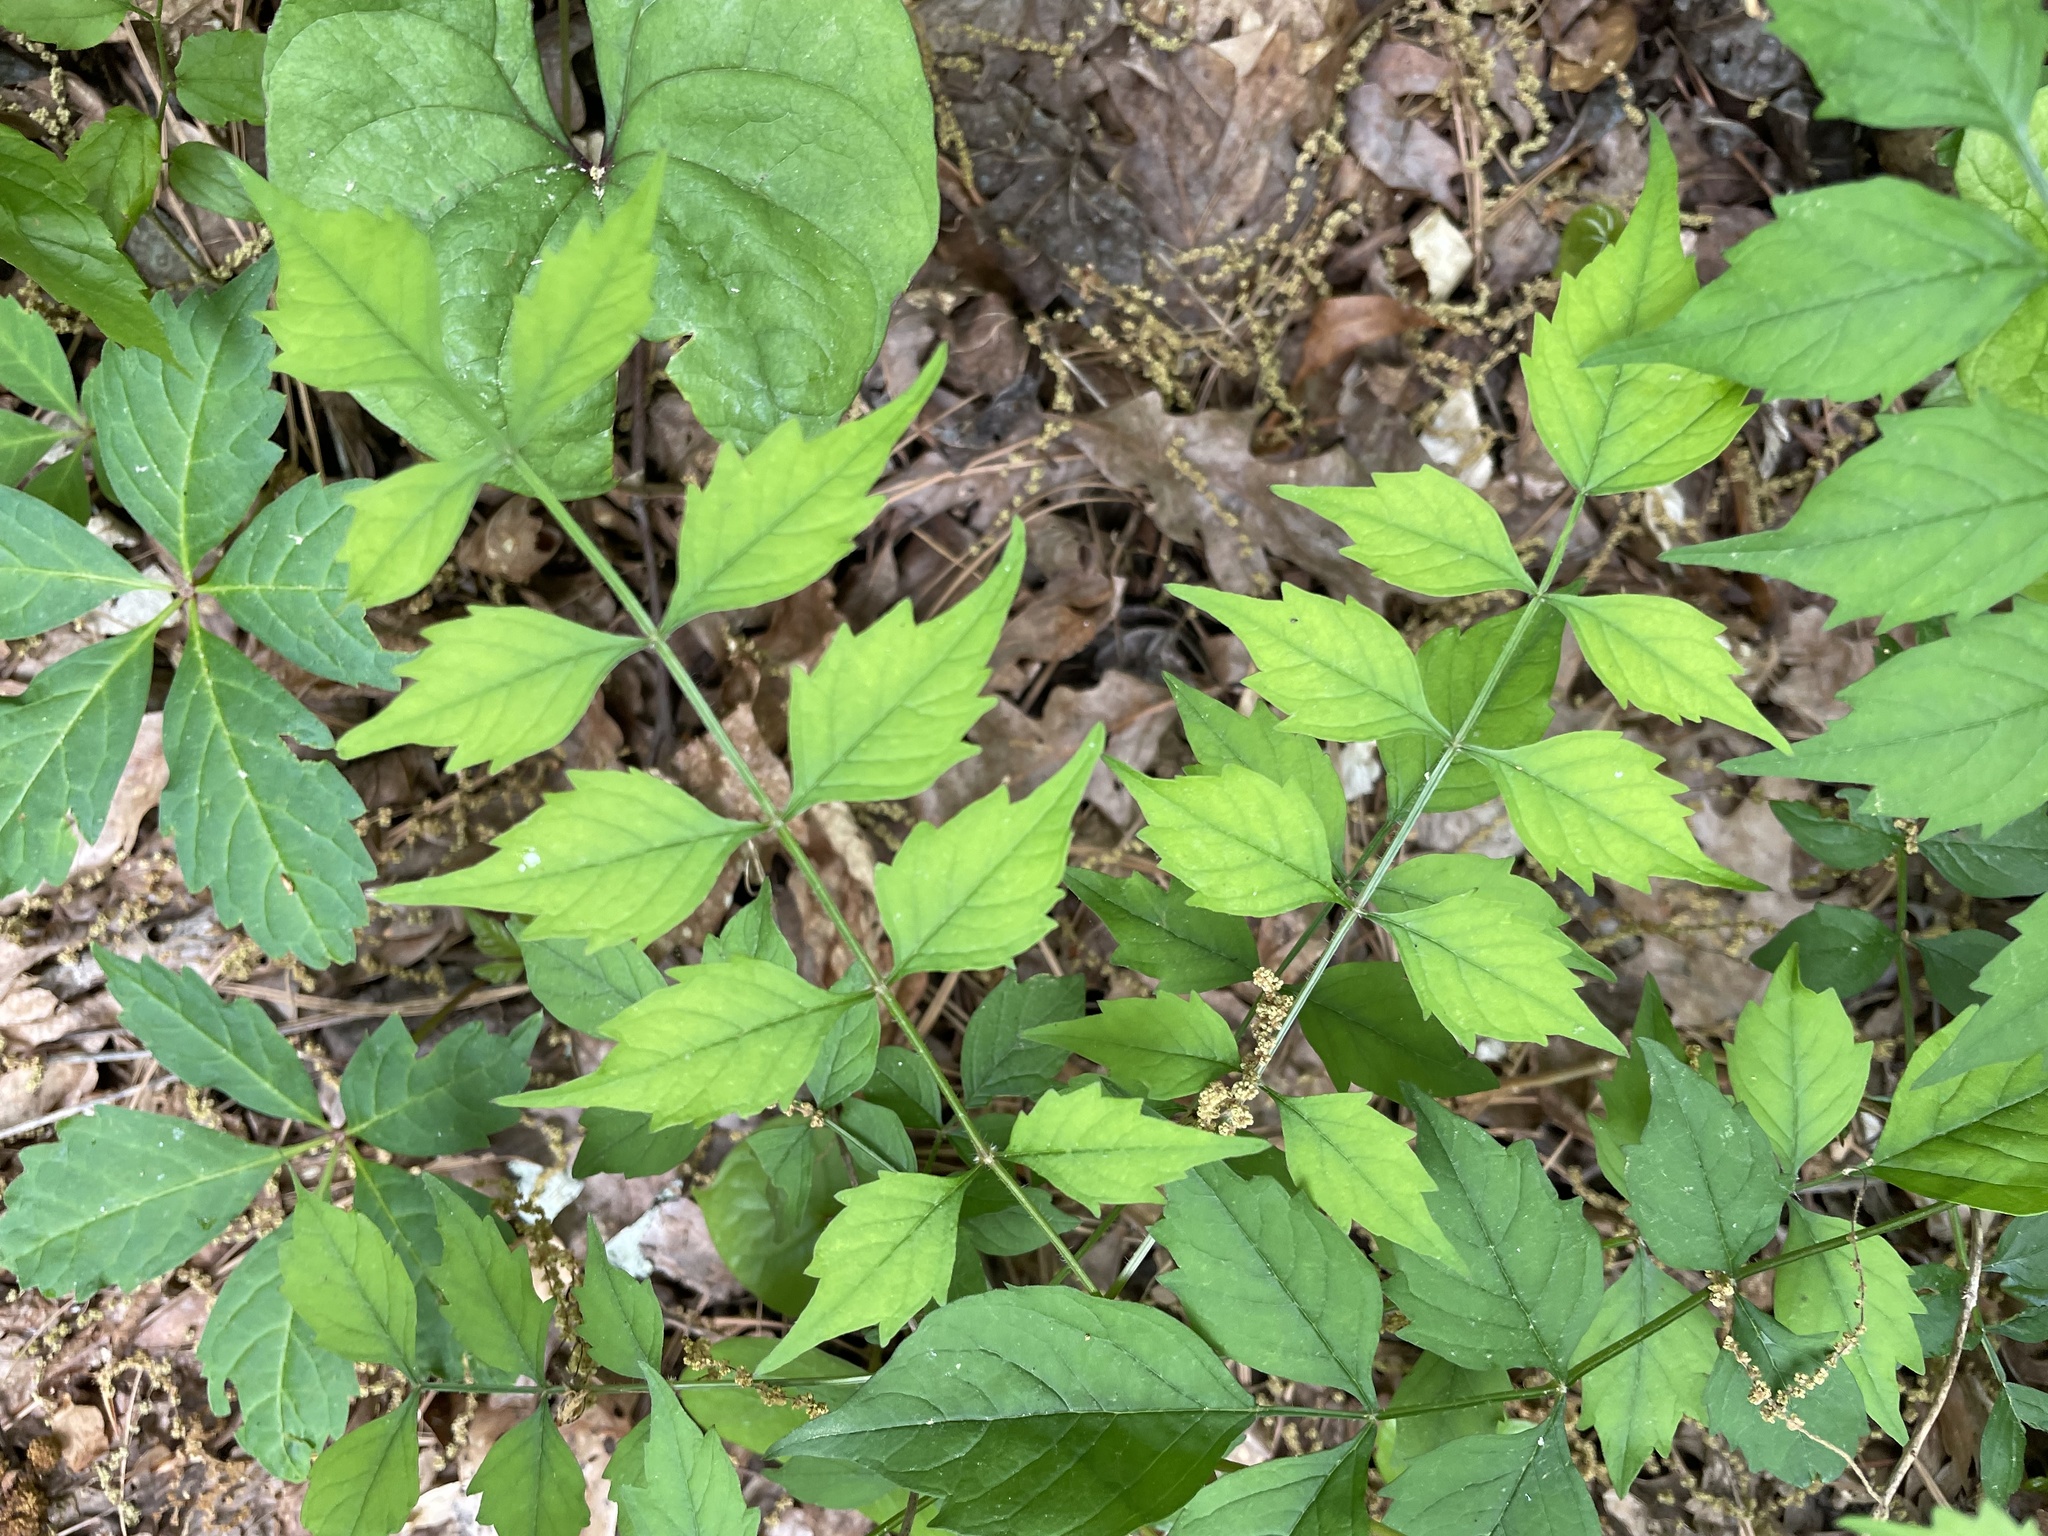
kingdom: Plantae
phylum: Tracheophyta
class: Magnoliopsida
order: Lamiales
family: Bignoniaceae
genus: Campsis
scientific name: Campsis radicans
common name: Trumpet-creeper
